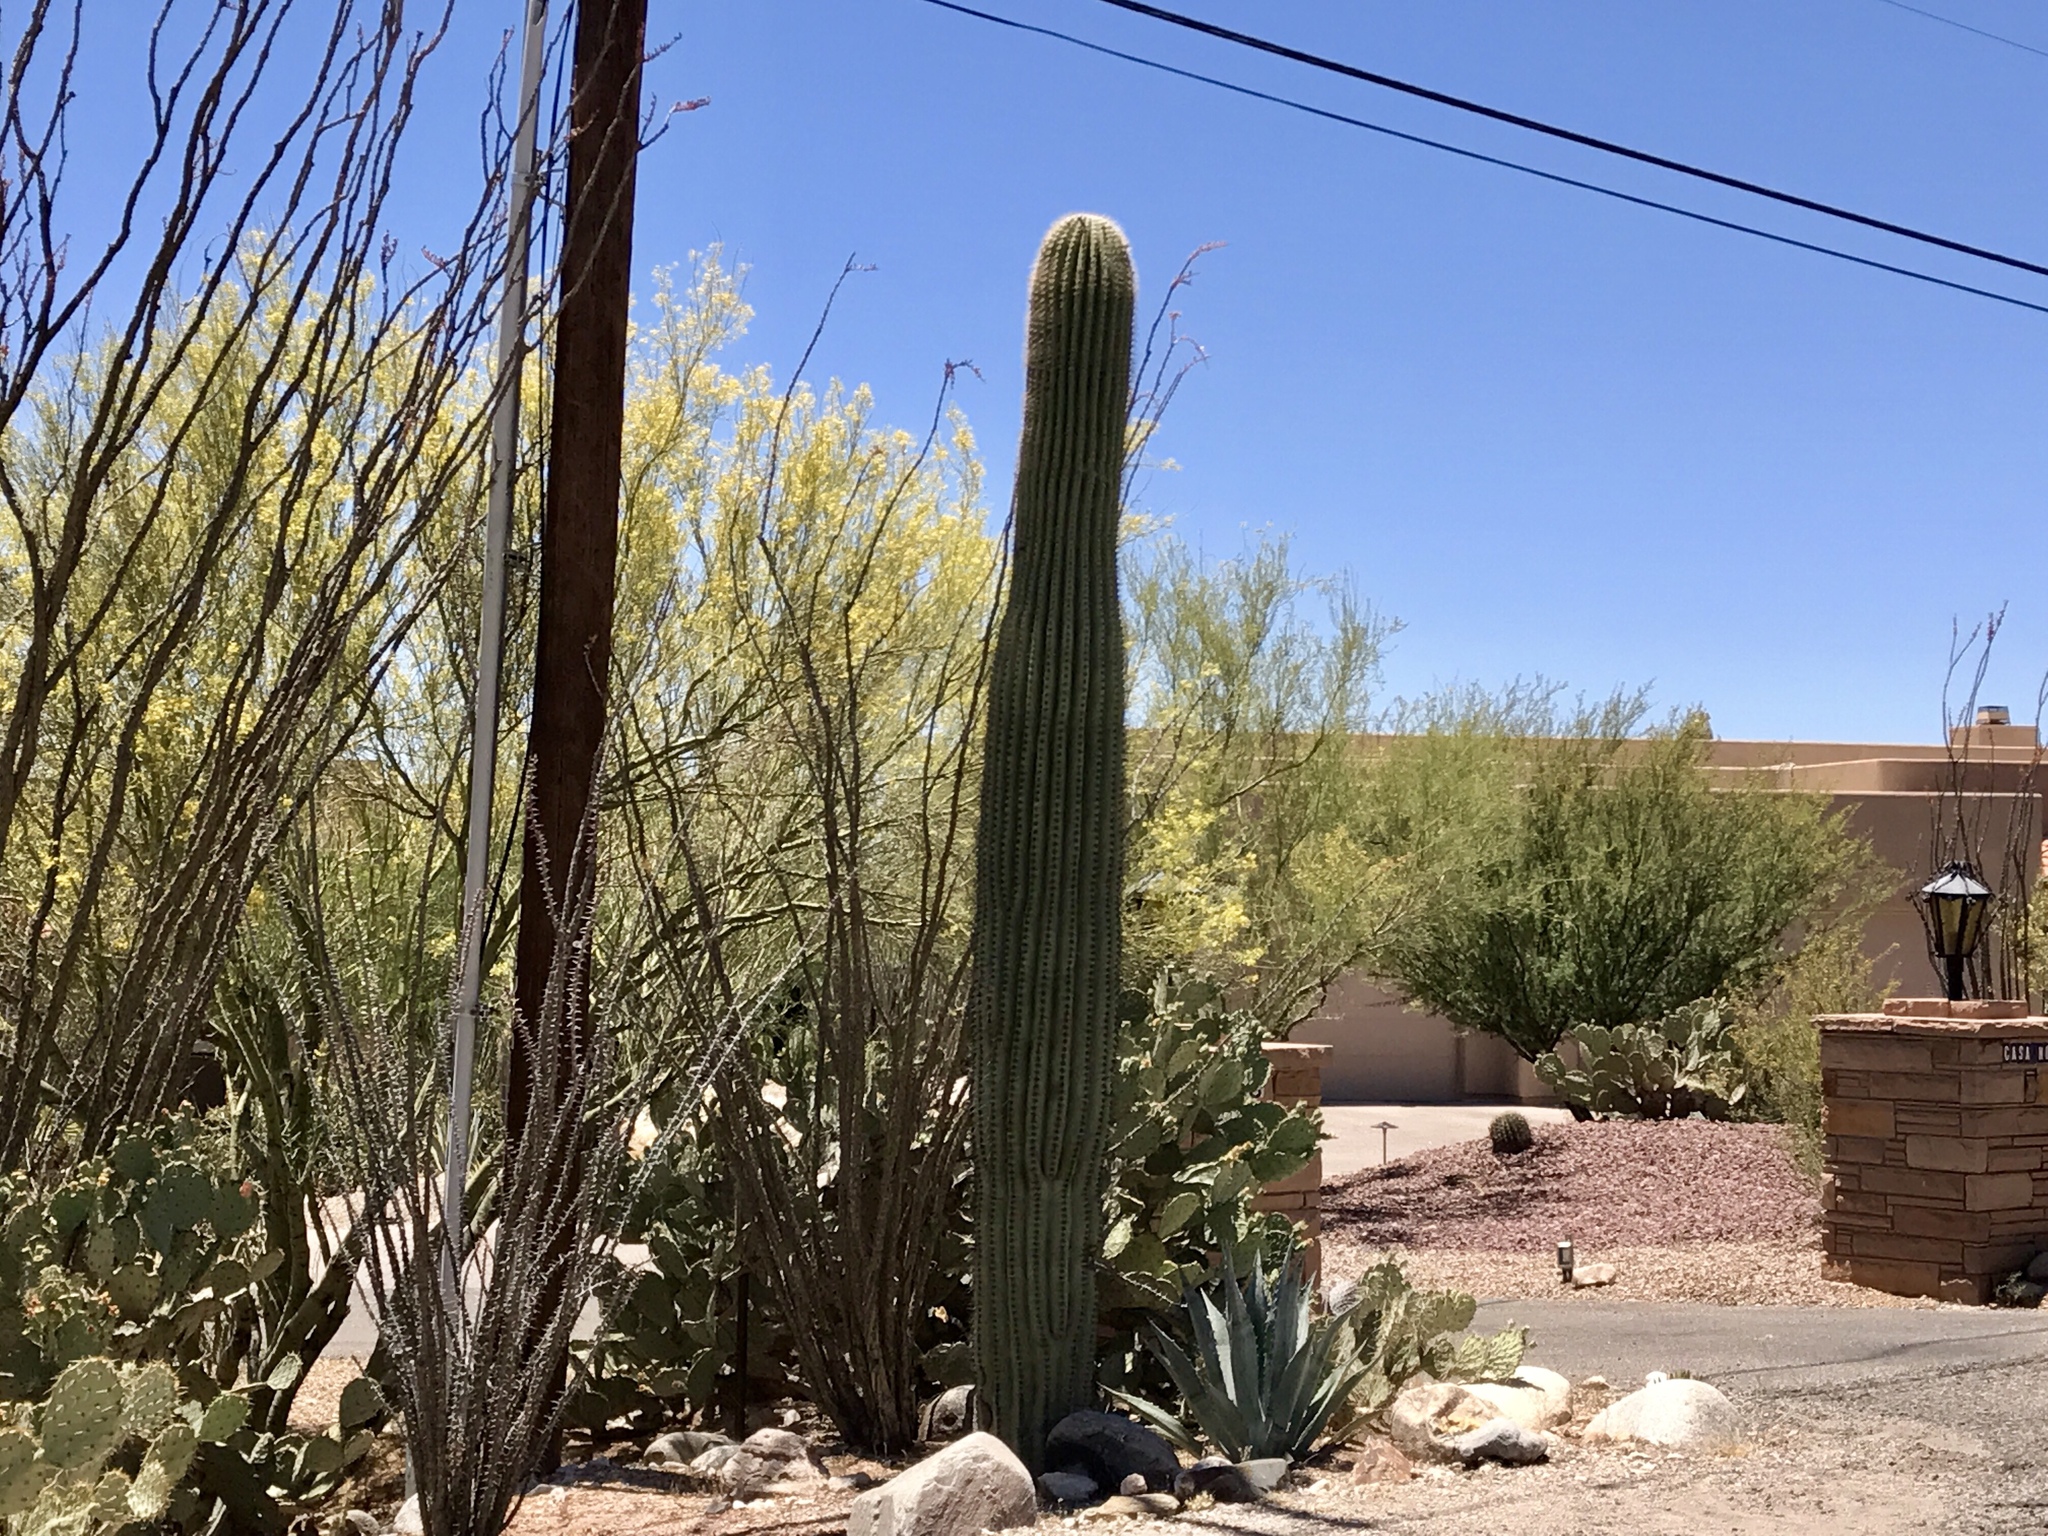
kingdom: Plantae
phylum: Tracheophyta
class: Magnoliopsida
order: Caryophyllales
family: Cactaceae
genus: Carnegiea
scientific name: Carnegiea gigantea
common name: Saguaro
